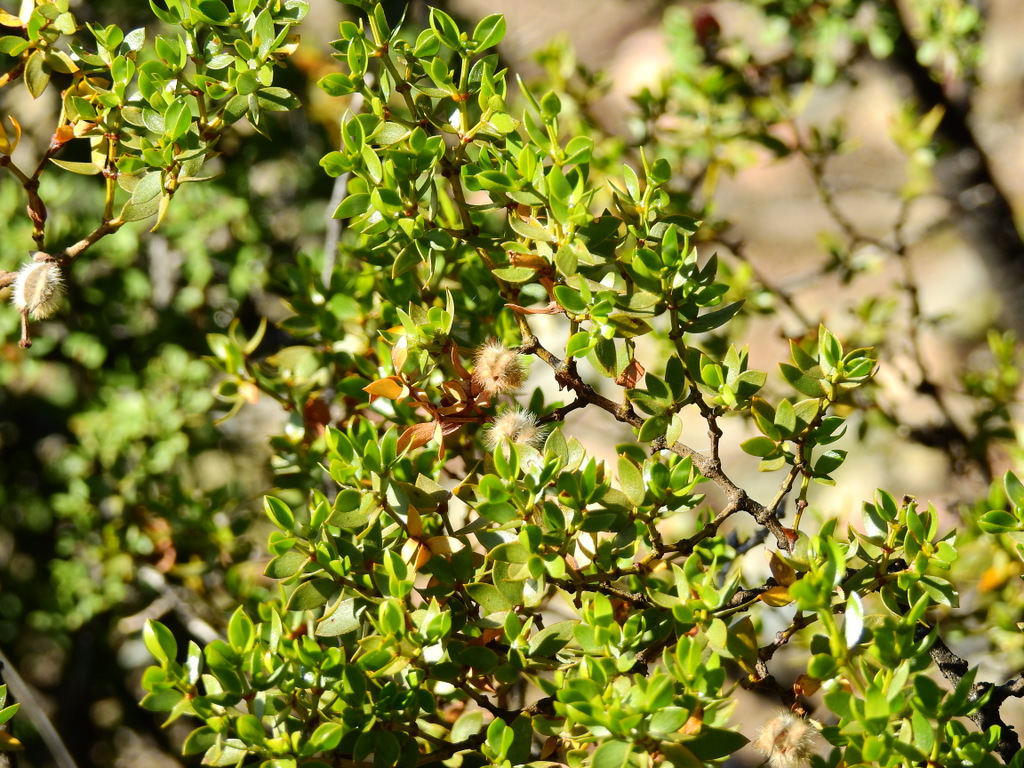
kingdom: Plantae
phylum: Tracheophyta
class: Magnoliopsida
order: Zygophyllales
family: Zygophyllaceae
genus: Larrea
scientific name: Larrea divaricata
